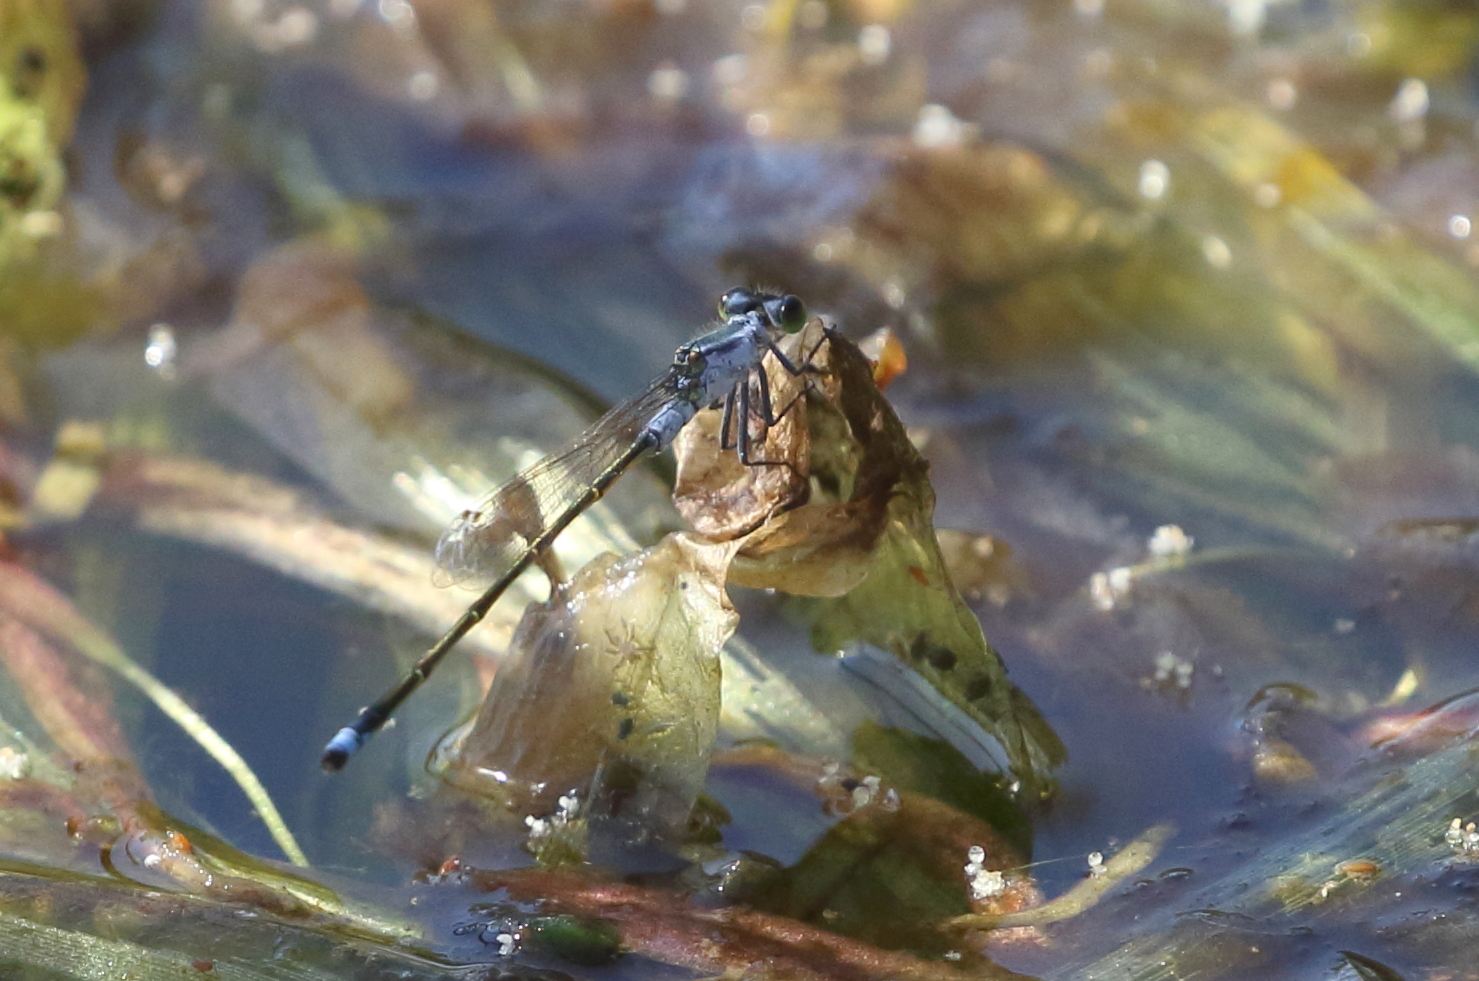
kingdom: Animalia
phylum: Arthropoda
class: Insecta
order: Odonata
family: Coenagrionidae
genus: Ischnura
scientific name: Ischnura pruinescens
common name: Colourful bluetail
